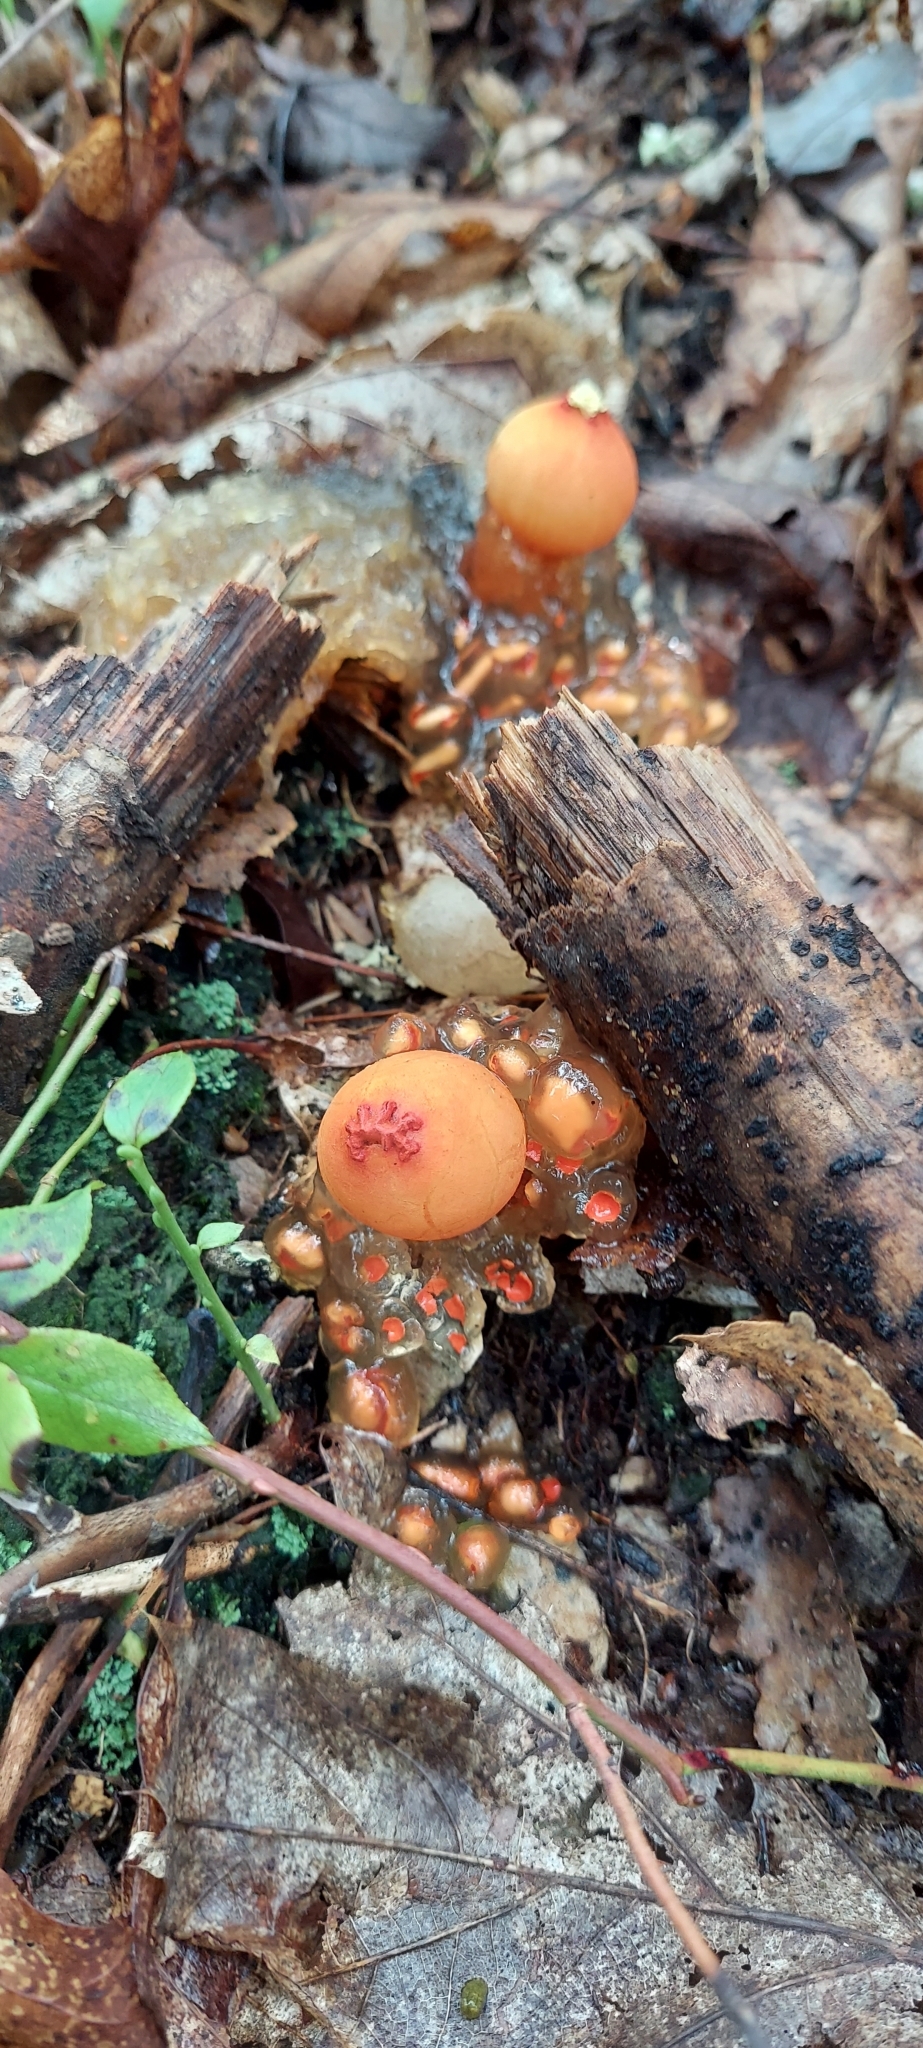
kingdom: Fungi
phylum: Basidiomycota
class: Agaricomycetes
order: Boletales
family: Calostomataceae
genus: Calostoma
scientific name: Calostoma cinnabarinum
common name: Stalked puffball-in-aspic
